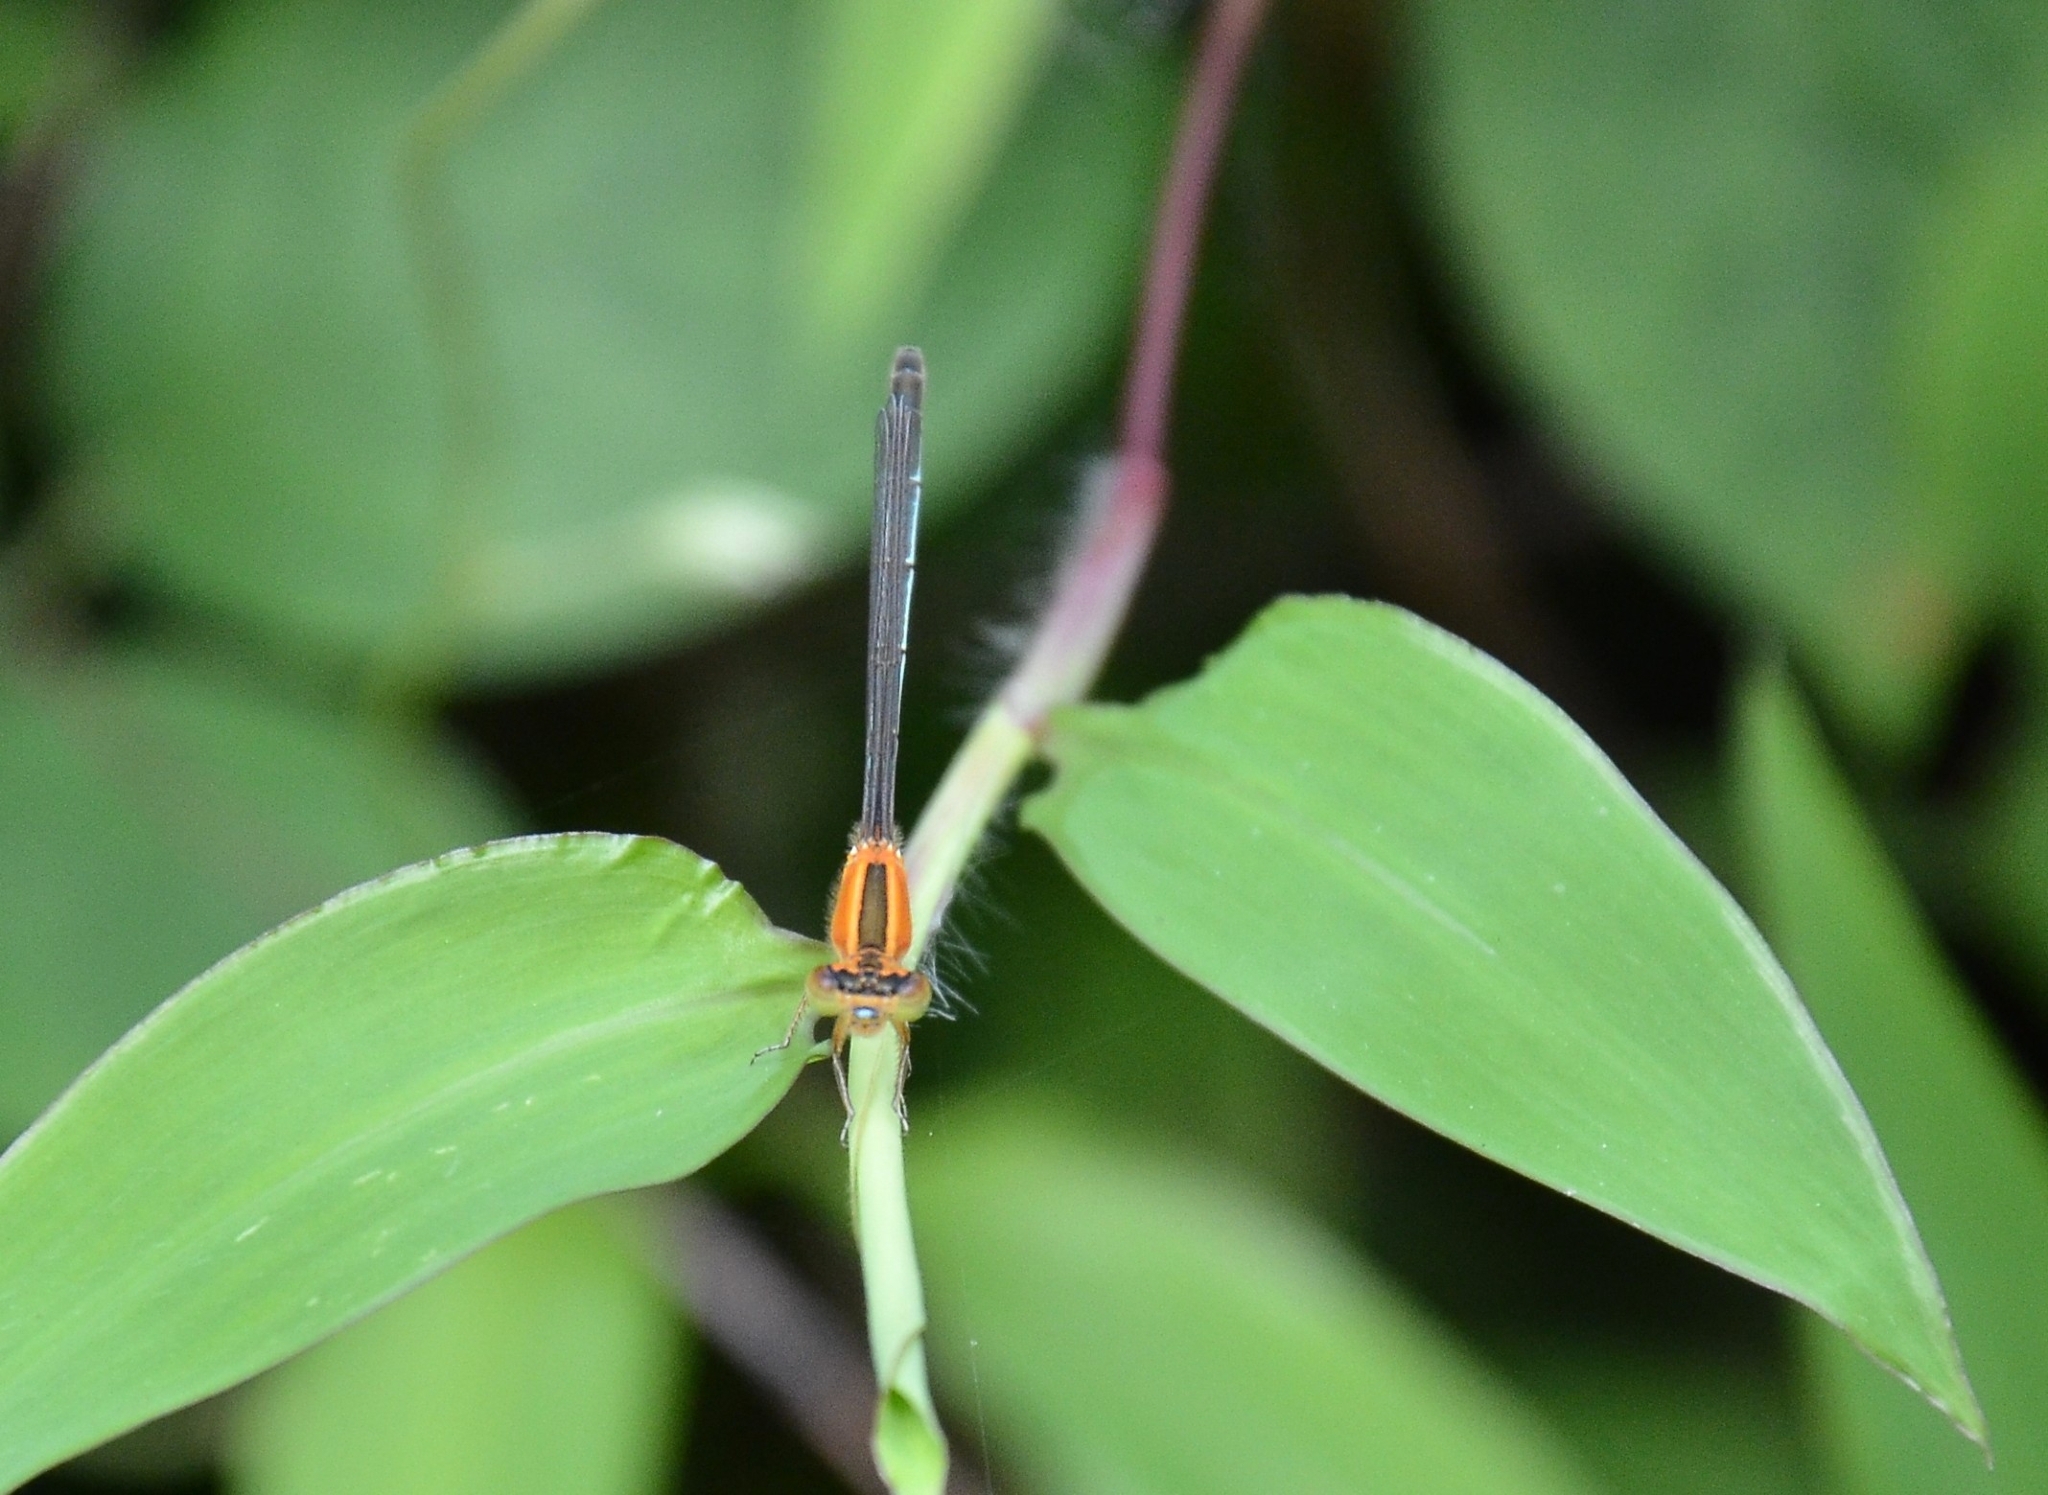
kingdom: Animalia
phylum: Arthropoda
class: Insecta
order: Odonata
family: Coenagrionidae
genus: Ischnura
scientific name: Ischnura senegalensis
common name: Tropical bluetail
